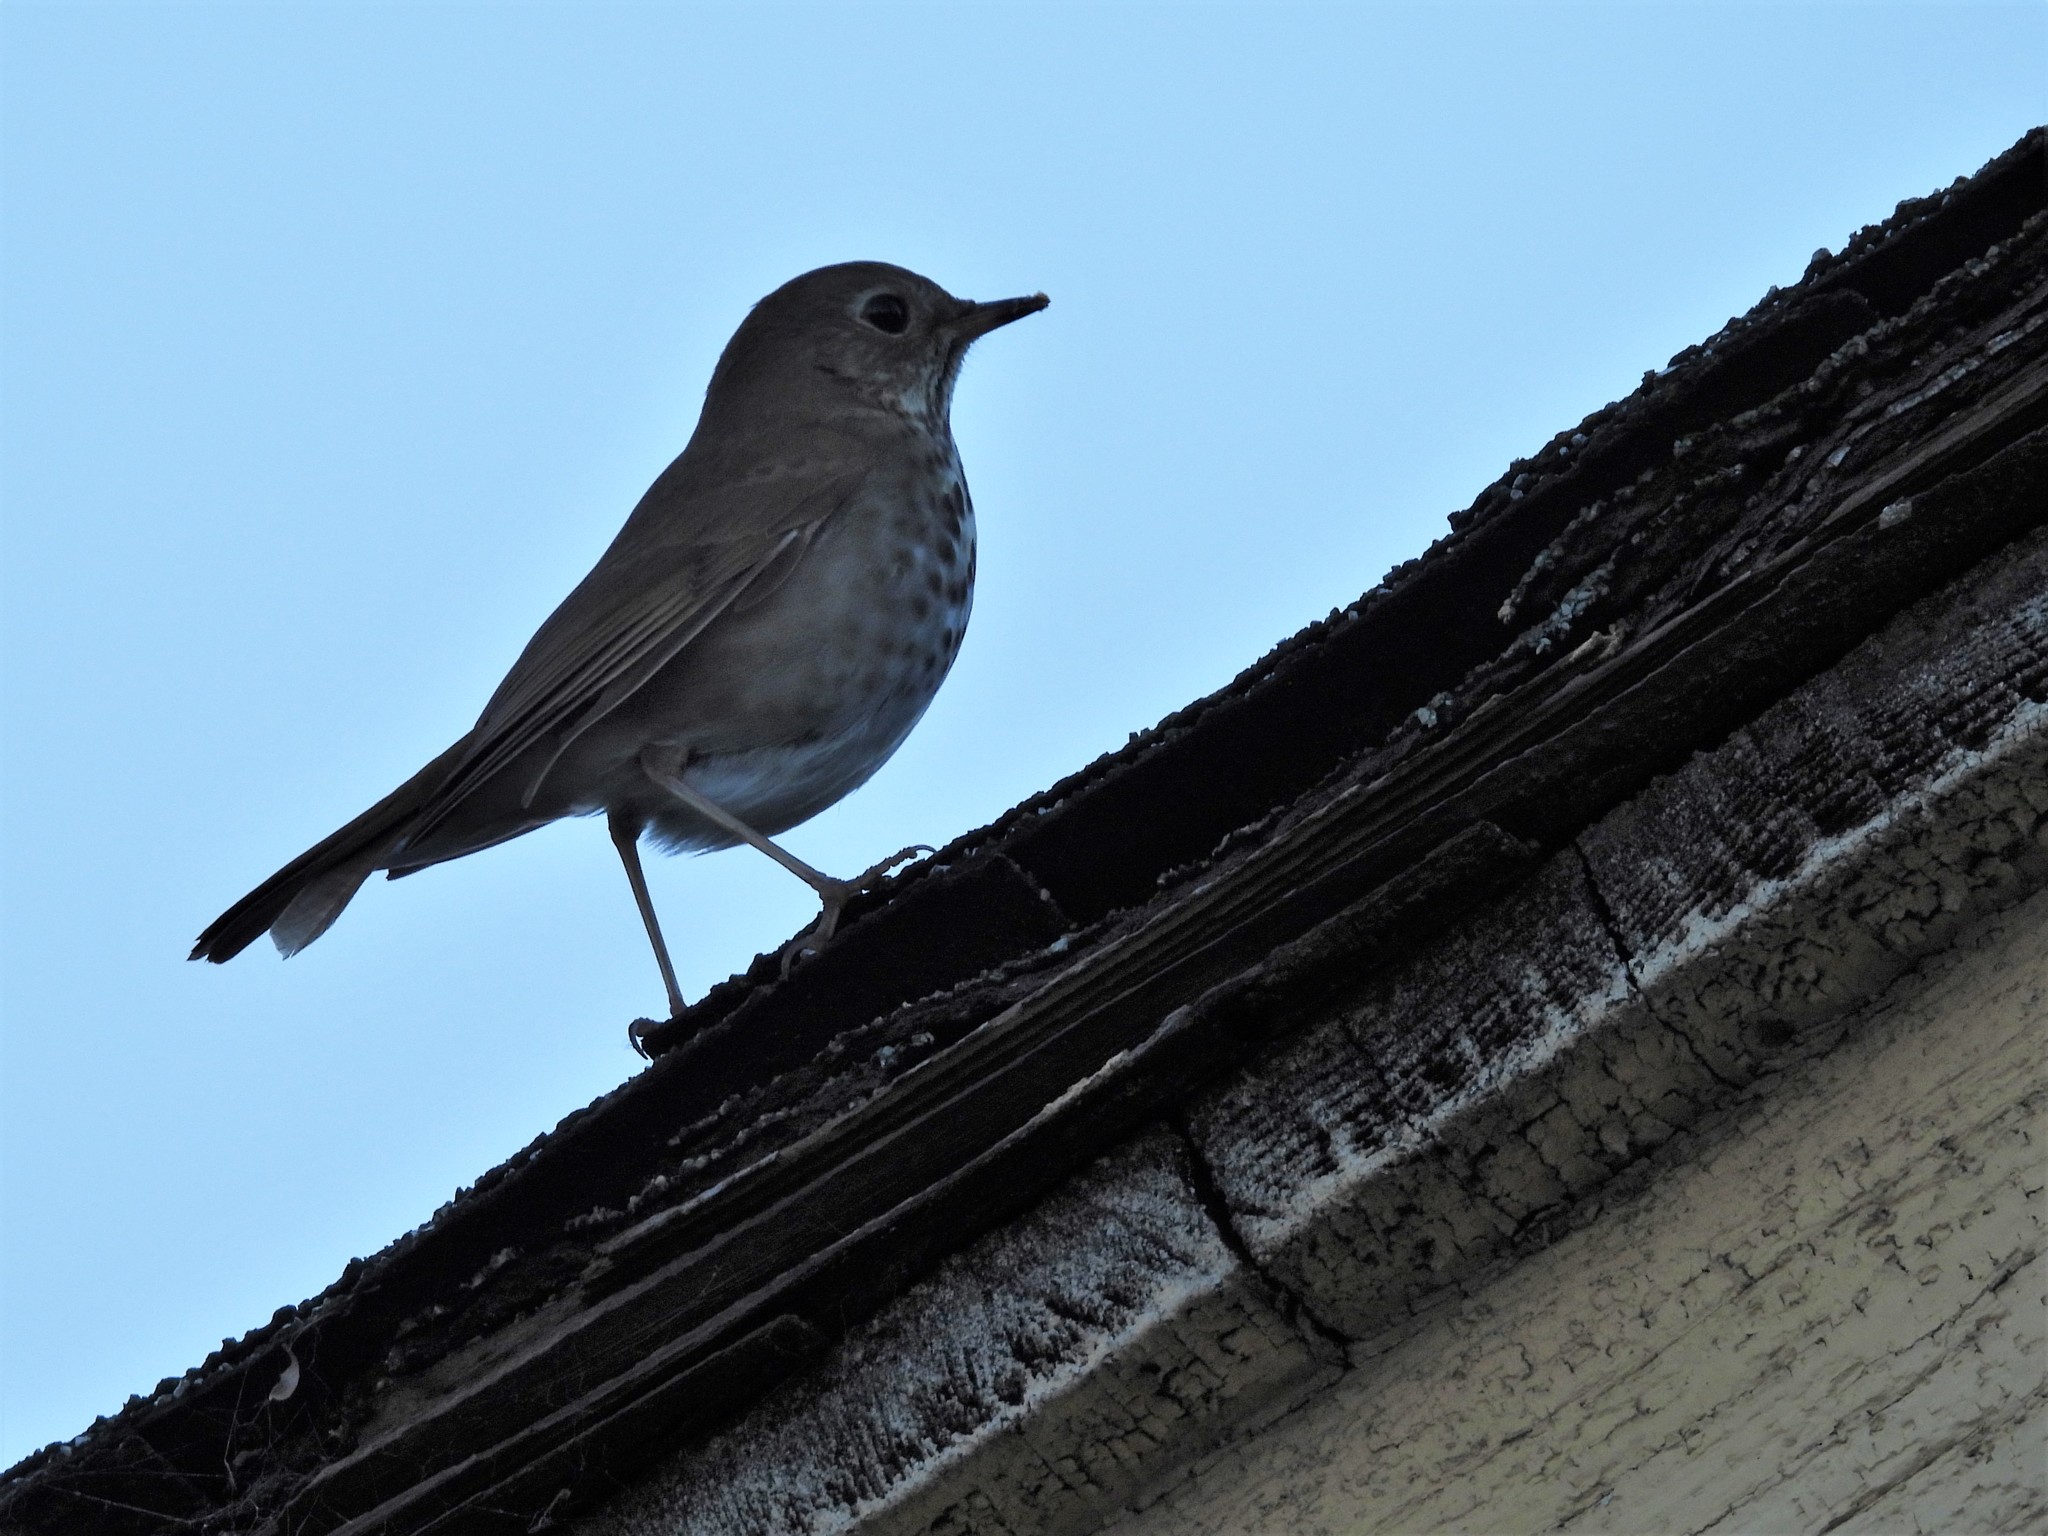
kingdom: Animalia
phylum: Chordata
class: Aves
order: Passeriformes
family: Turdidae
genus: Catharus
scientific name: Catharus guttatus
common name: Hermit thrush
